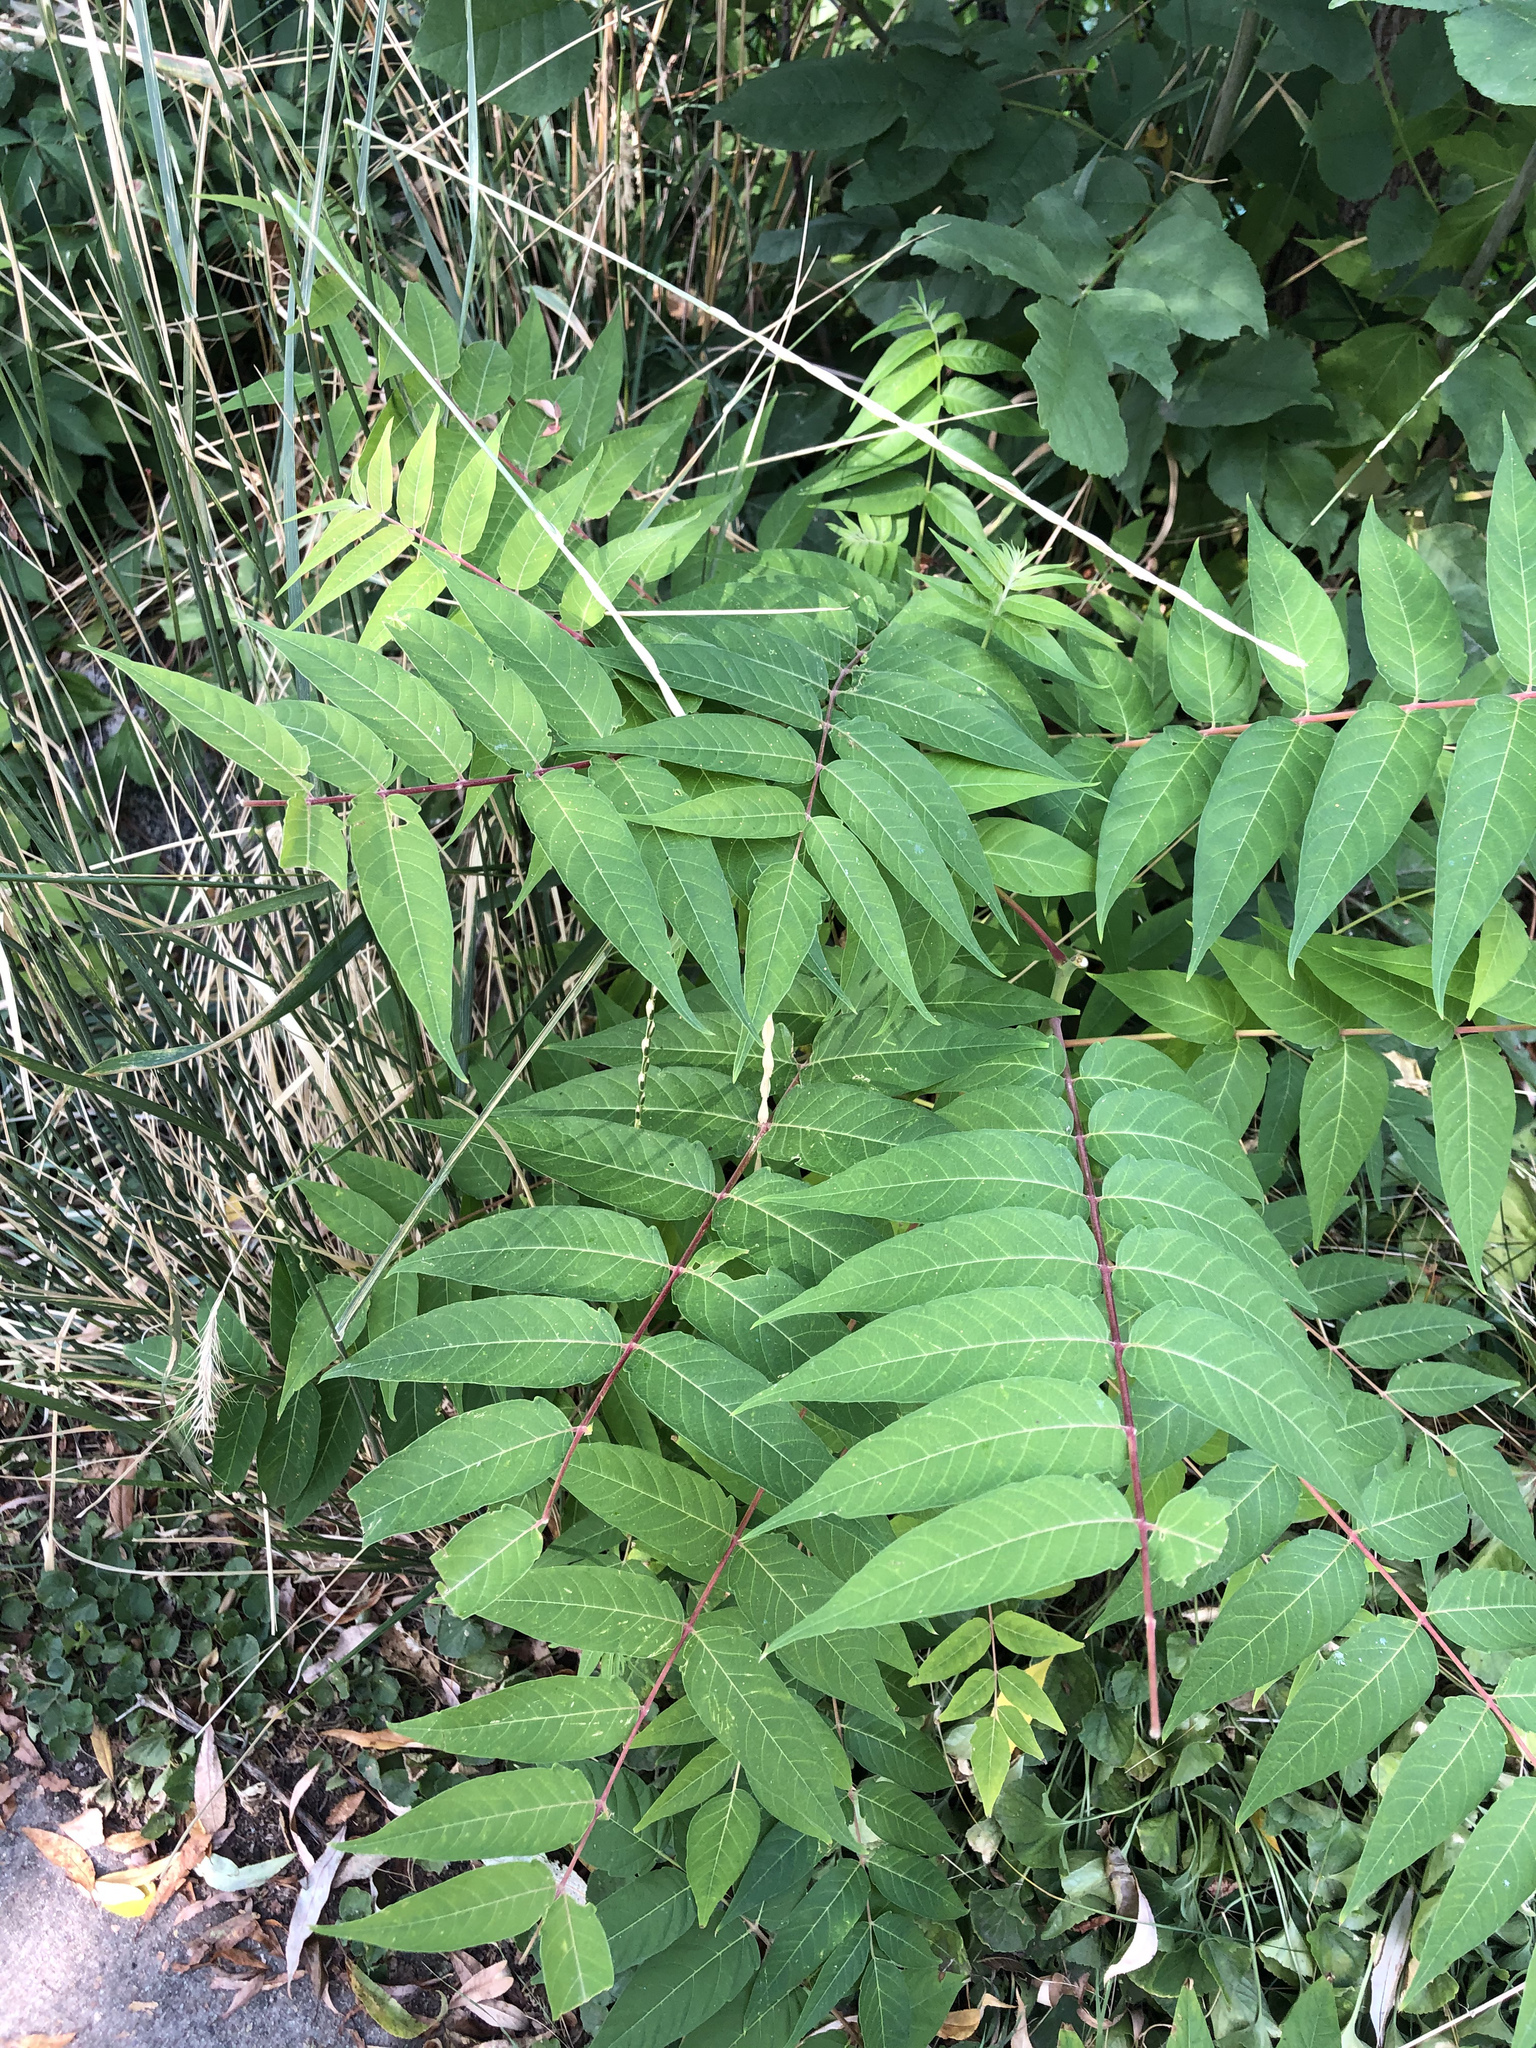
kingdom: Plantae
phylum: Tracheophyta
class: Magnoliopsida
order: Sapindales
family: Simaroubaceae
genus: Ailanthus
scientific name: Ailanthus altissima
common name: Tree-of-heaven
